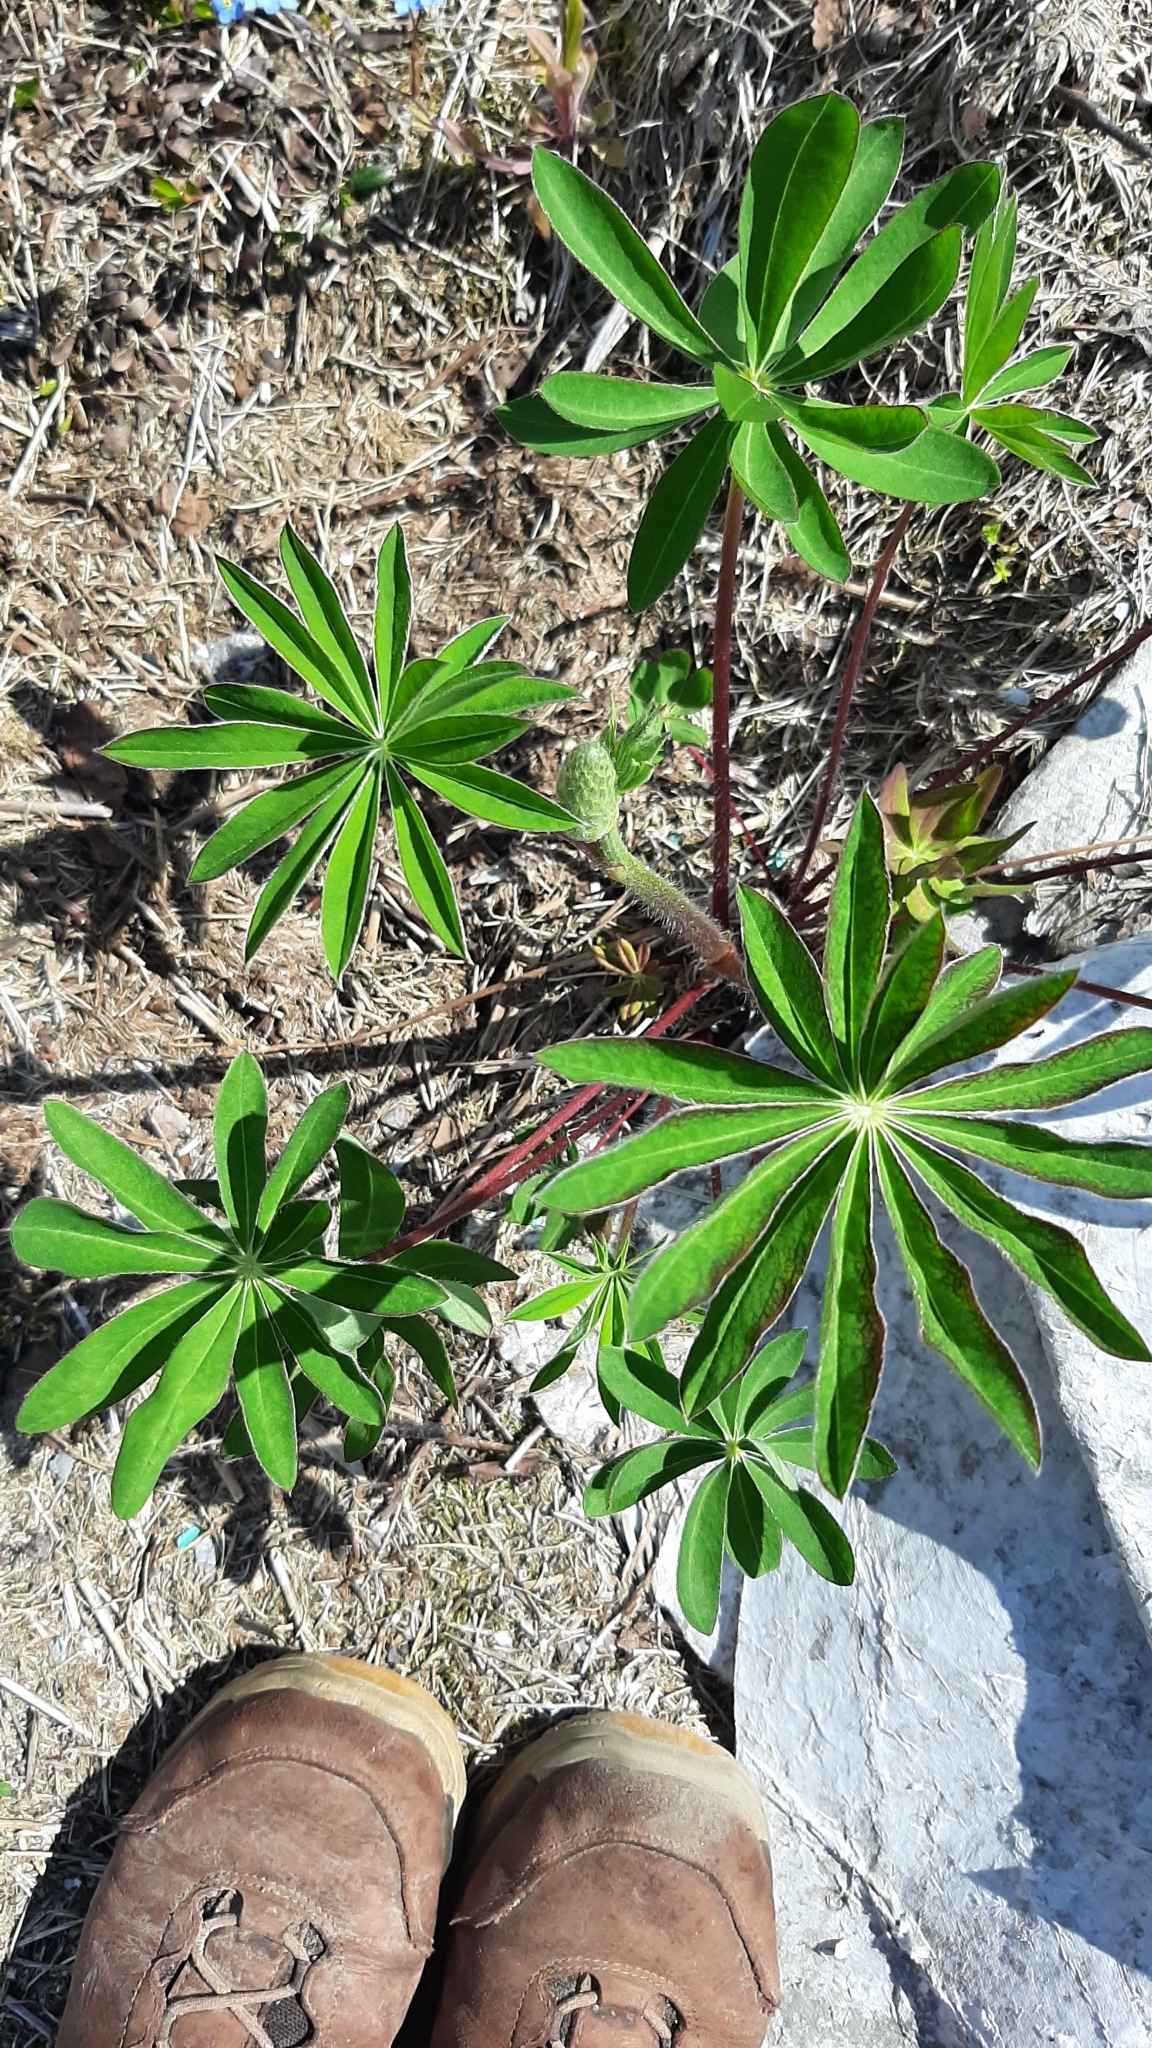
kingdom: Plantae
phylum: Tracheophyta
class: Magnoliopsida
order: Fabales
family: Fabaceae
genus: Lupinus
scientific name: Lupinus polyphyllus
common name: Garden lupin
